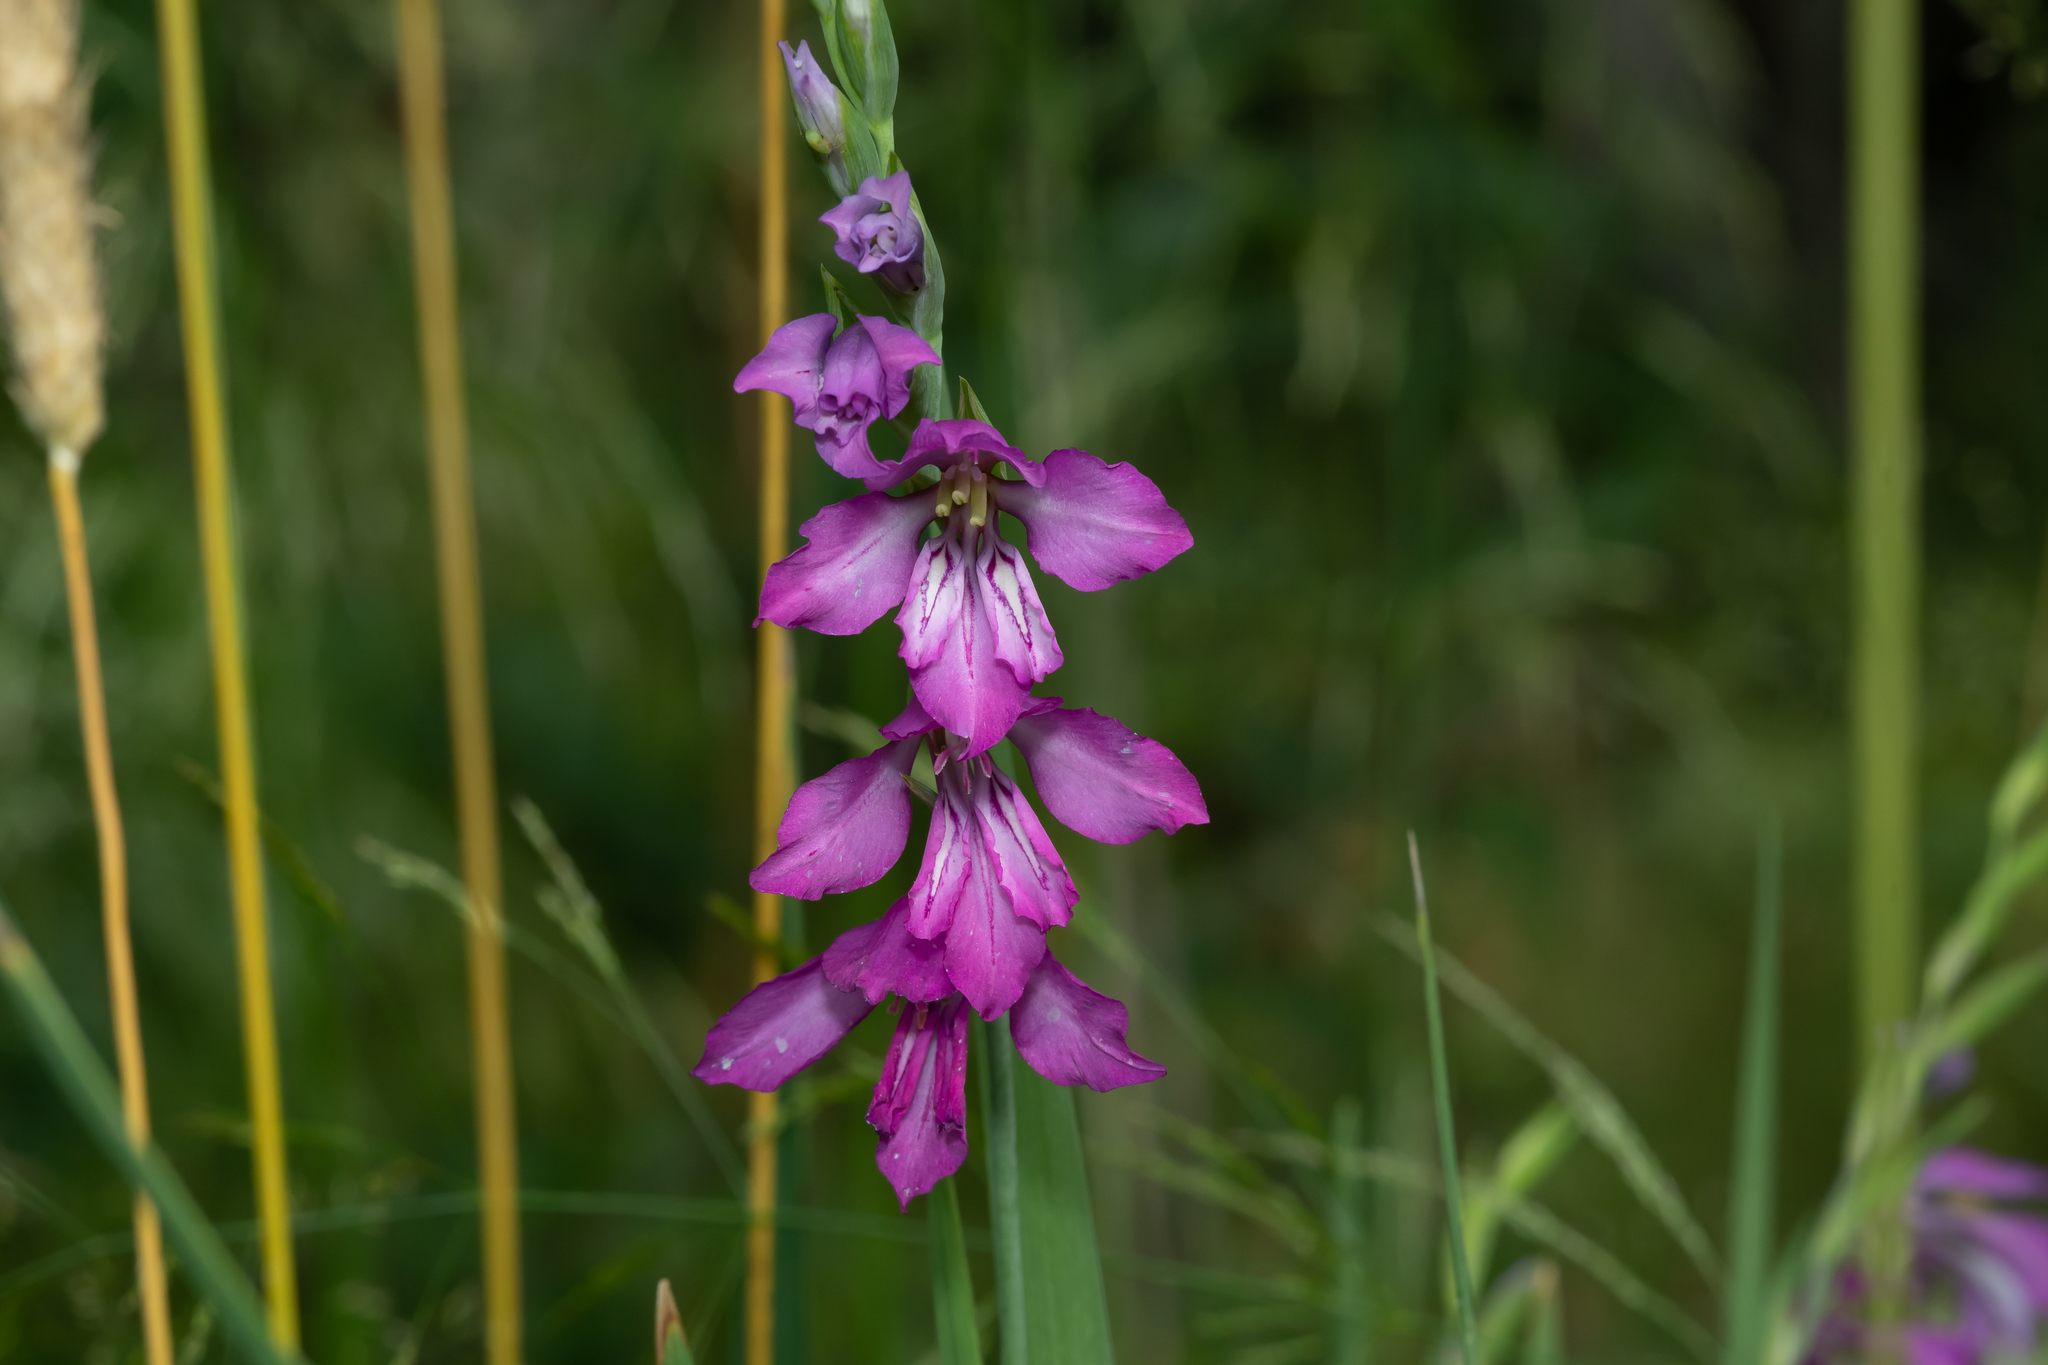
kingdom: Plantae
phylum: Tracheophyta
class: Liliopsida
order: Asparagales
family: Iridaceae
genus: Gladiolus
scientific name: Gladiolus imbricatus
